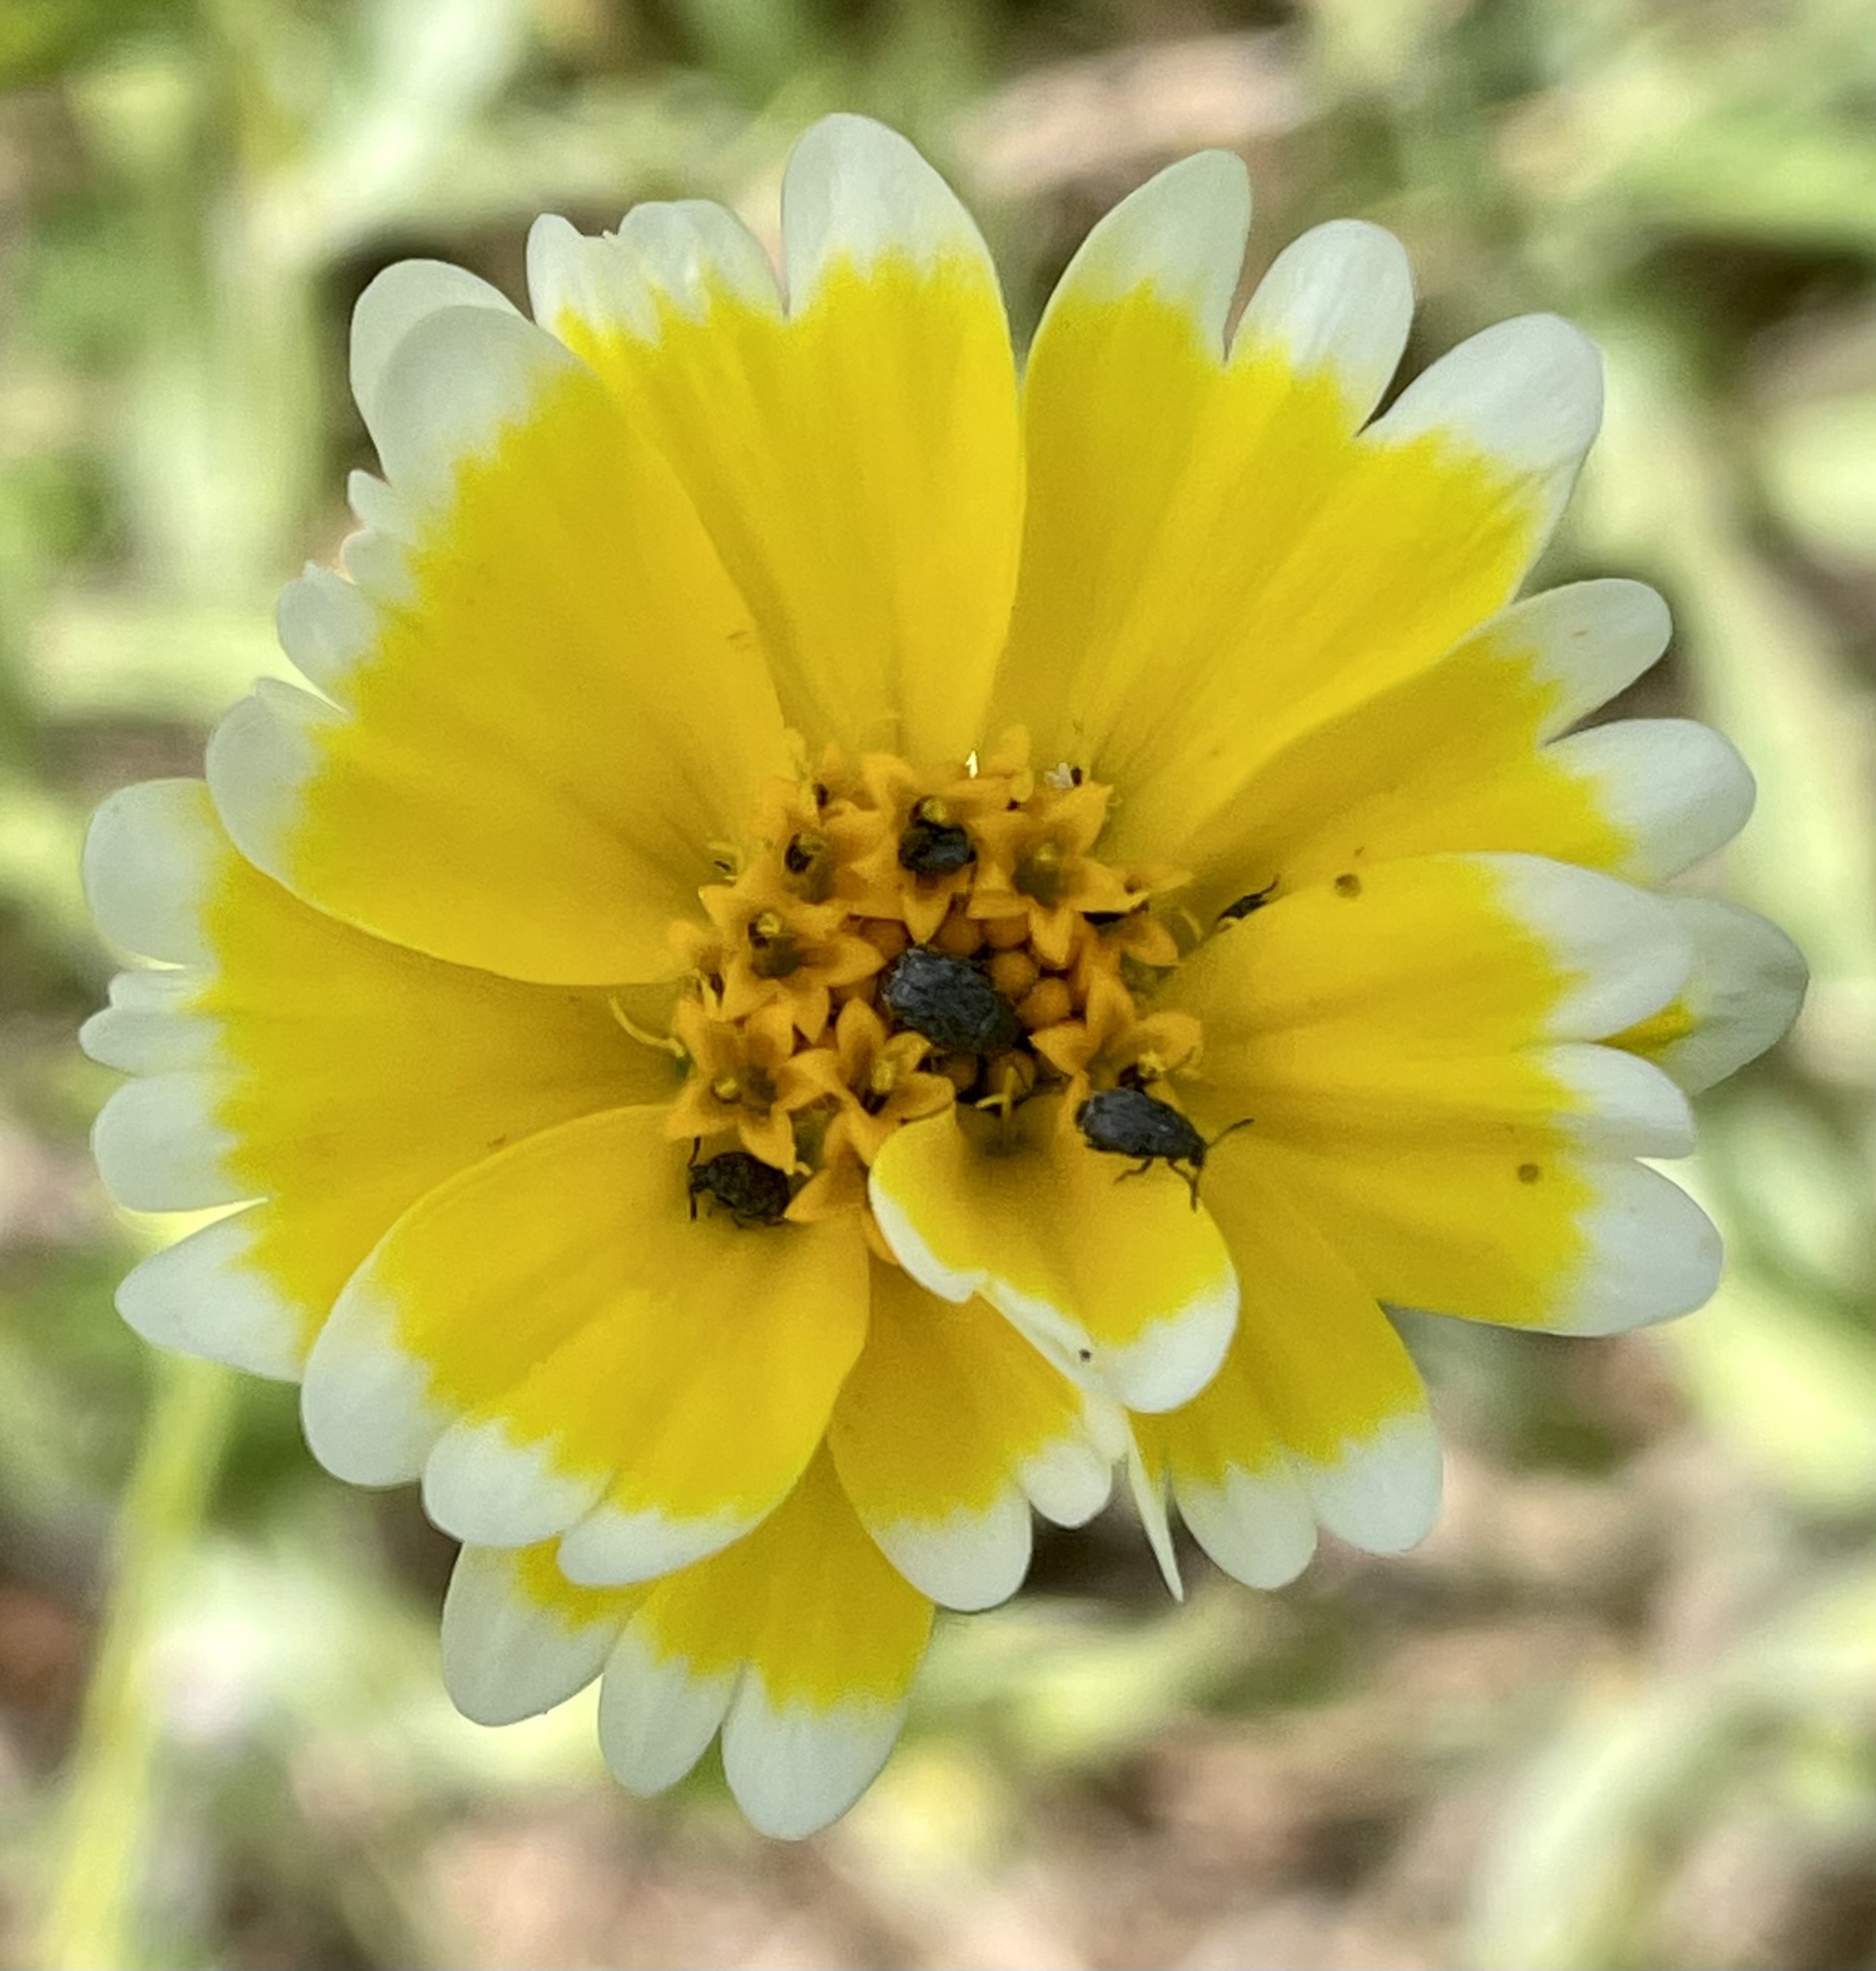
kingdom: Plantae
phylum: Tracheophyta
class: Magnoliopsida
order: Asterales
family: Asteraceae
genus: Layia
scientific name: Layia platyglossa
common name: Tidy-tips
